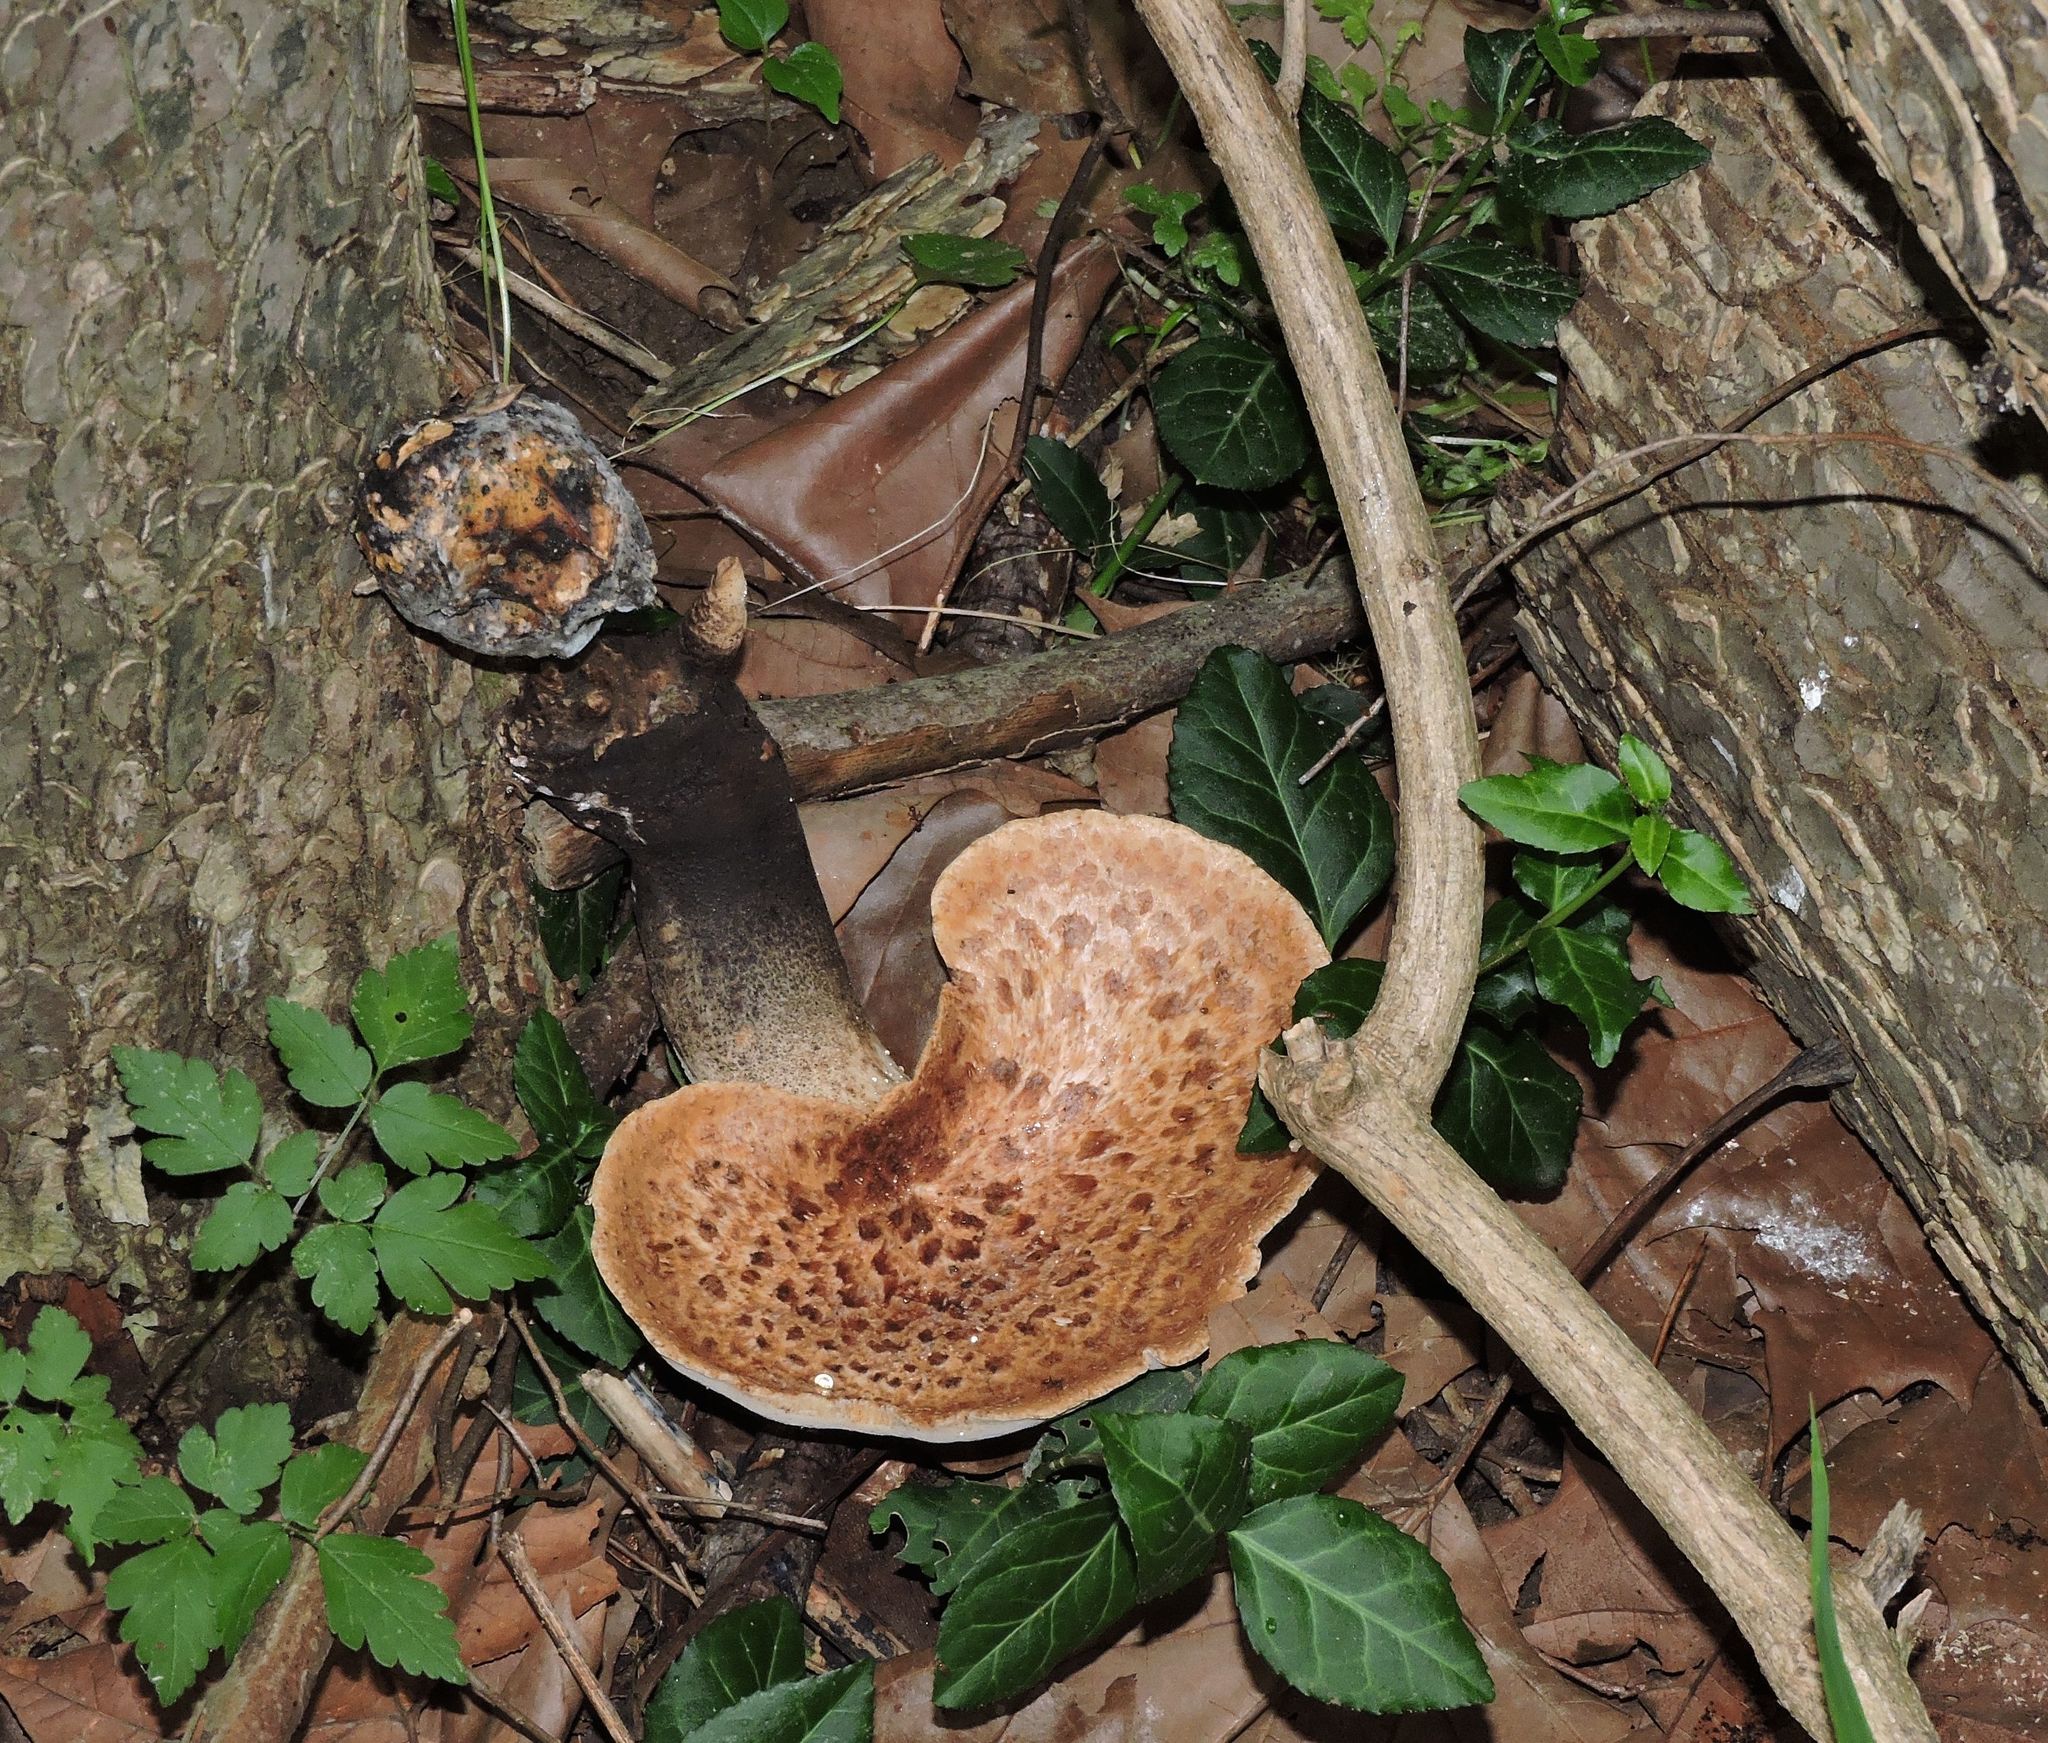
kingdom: Fungi
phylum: Basidiomycota
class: Agaricomycetes
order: Polyporales
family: Polyporaceae
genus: Cerioporus
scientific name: Cerioporus squamosus
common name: Dryad's saddle
